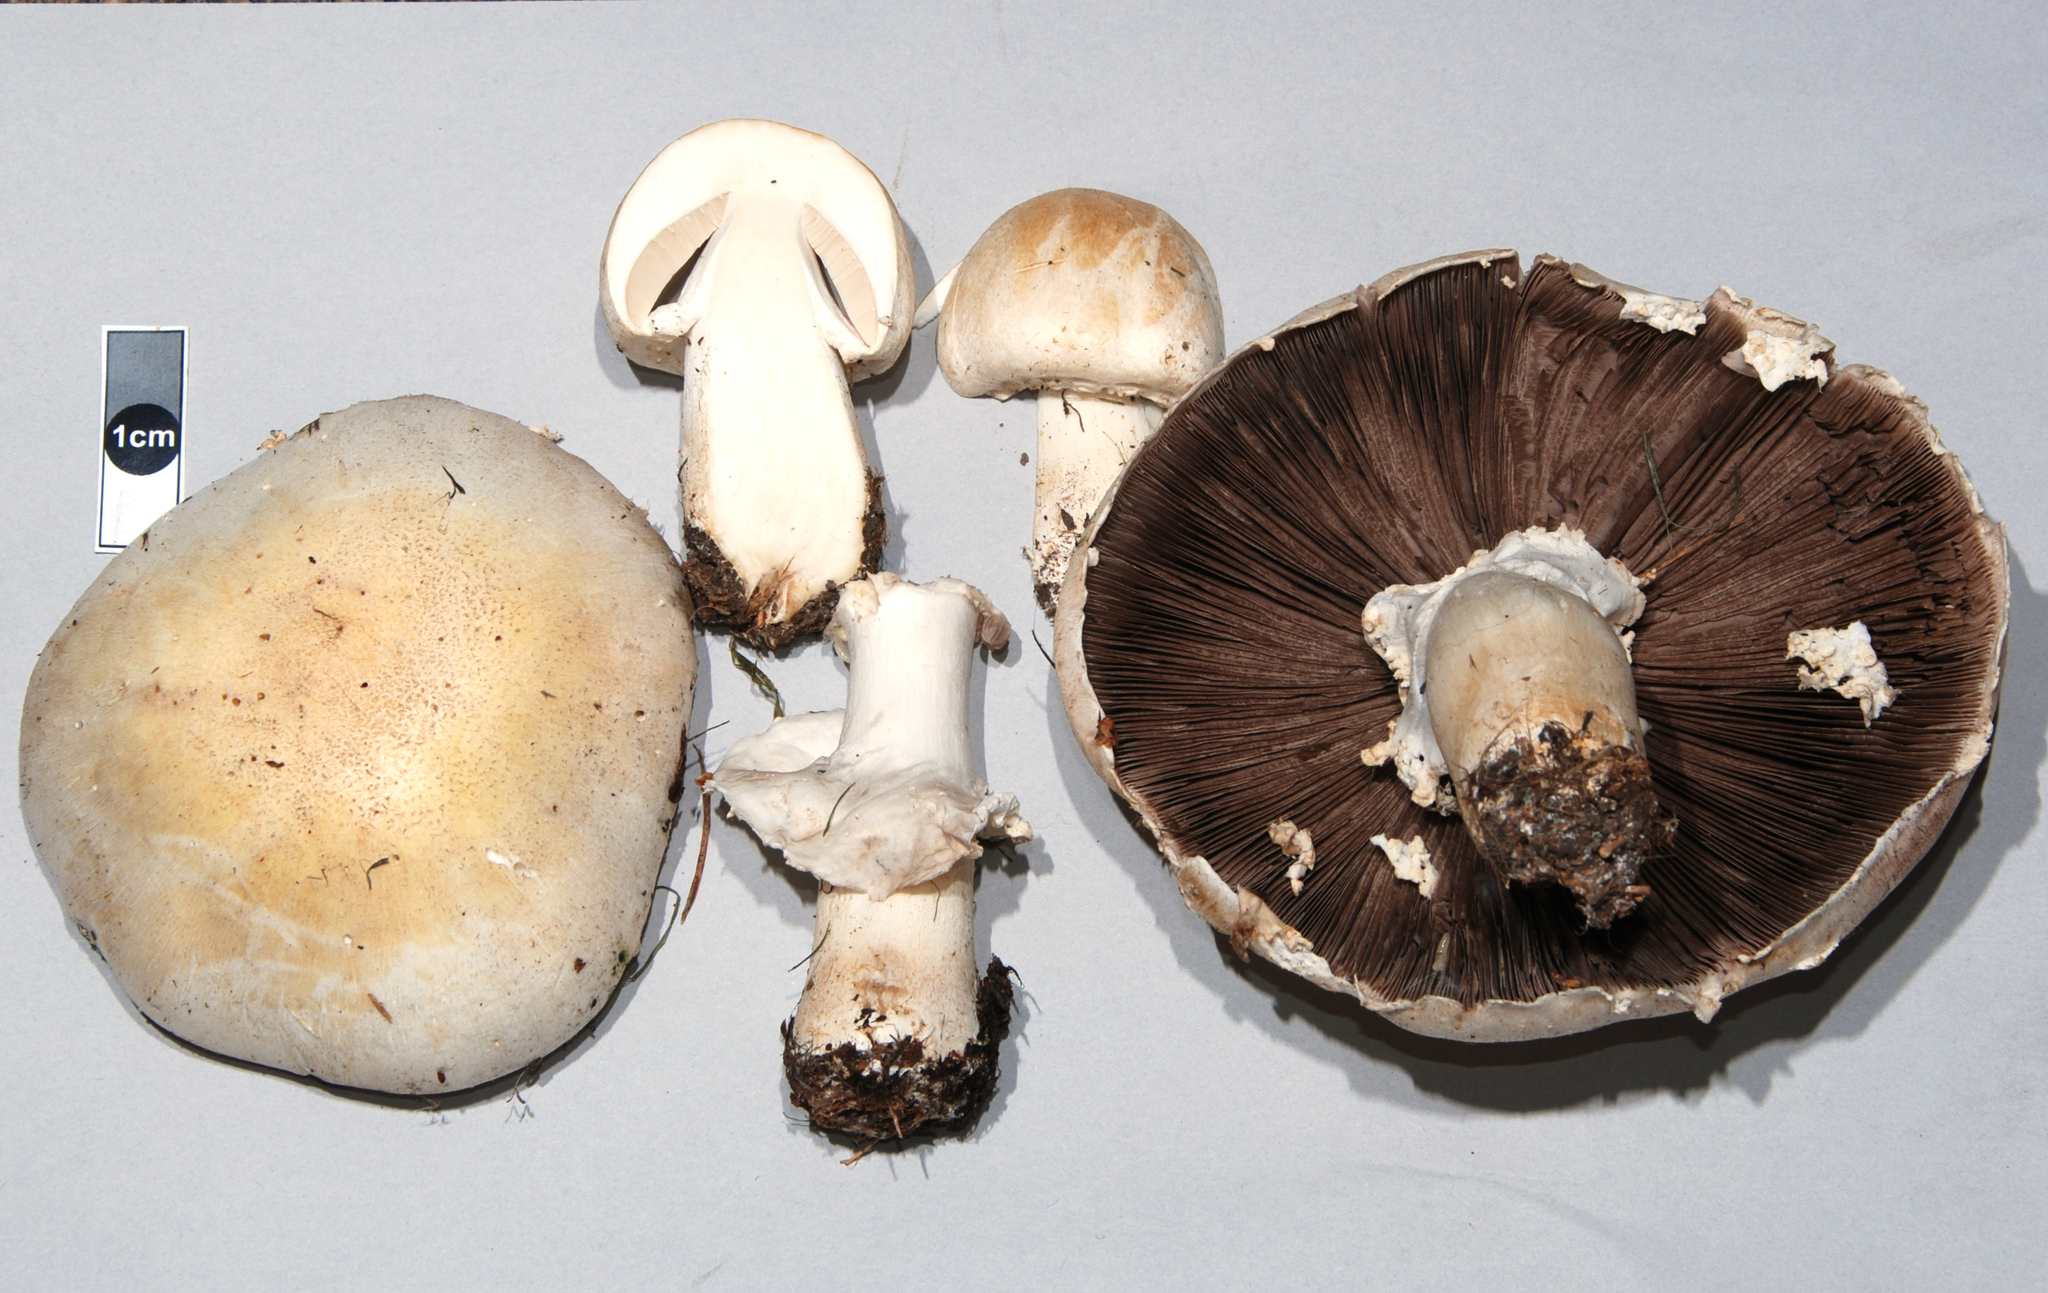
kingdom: Fungi
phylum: Basidiomycota
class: Agaricomycetes
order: Agaricales
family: Agaricaceae
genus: Agaricus
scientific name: Agaricus arvensis
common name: Horse mushroom
